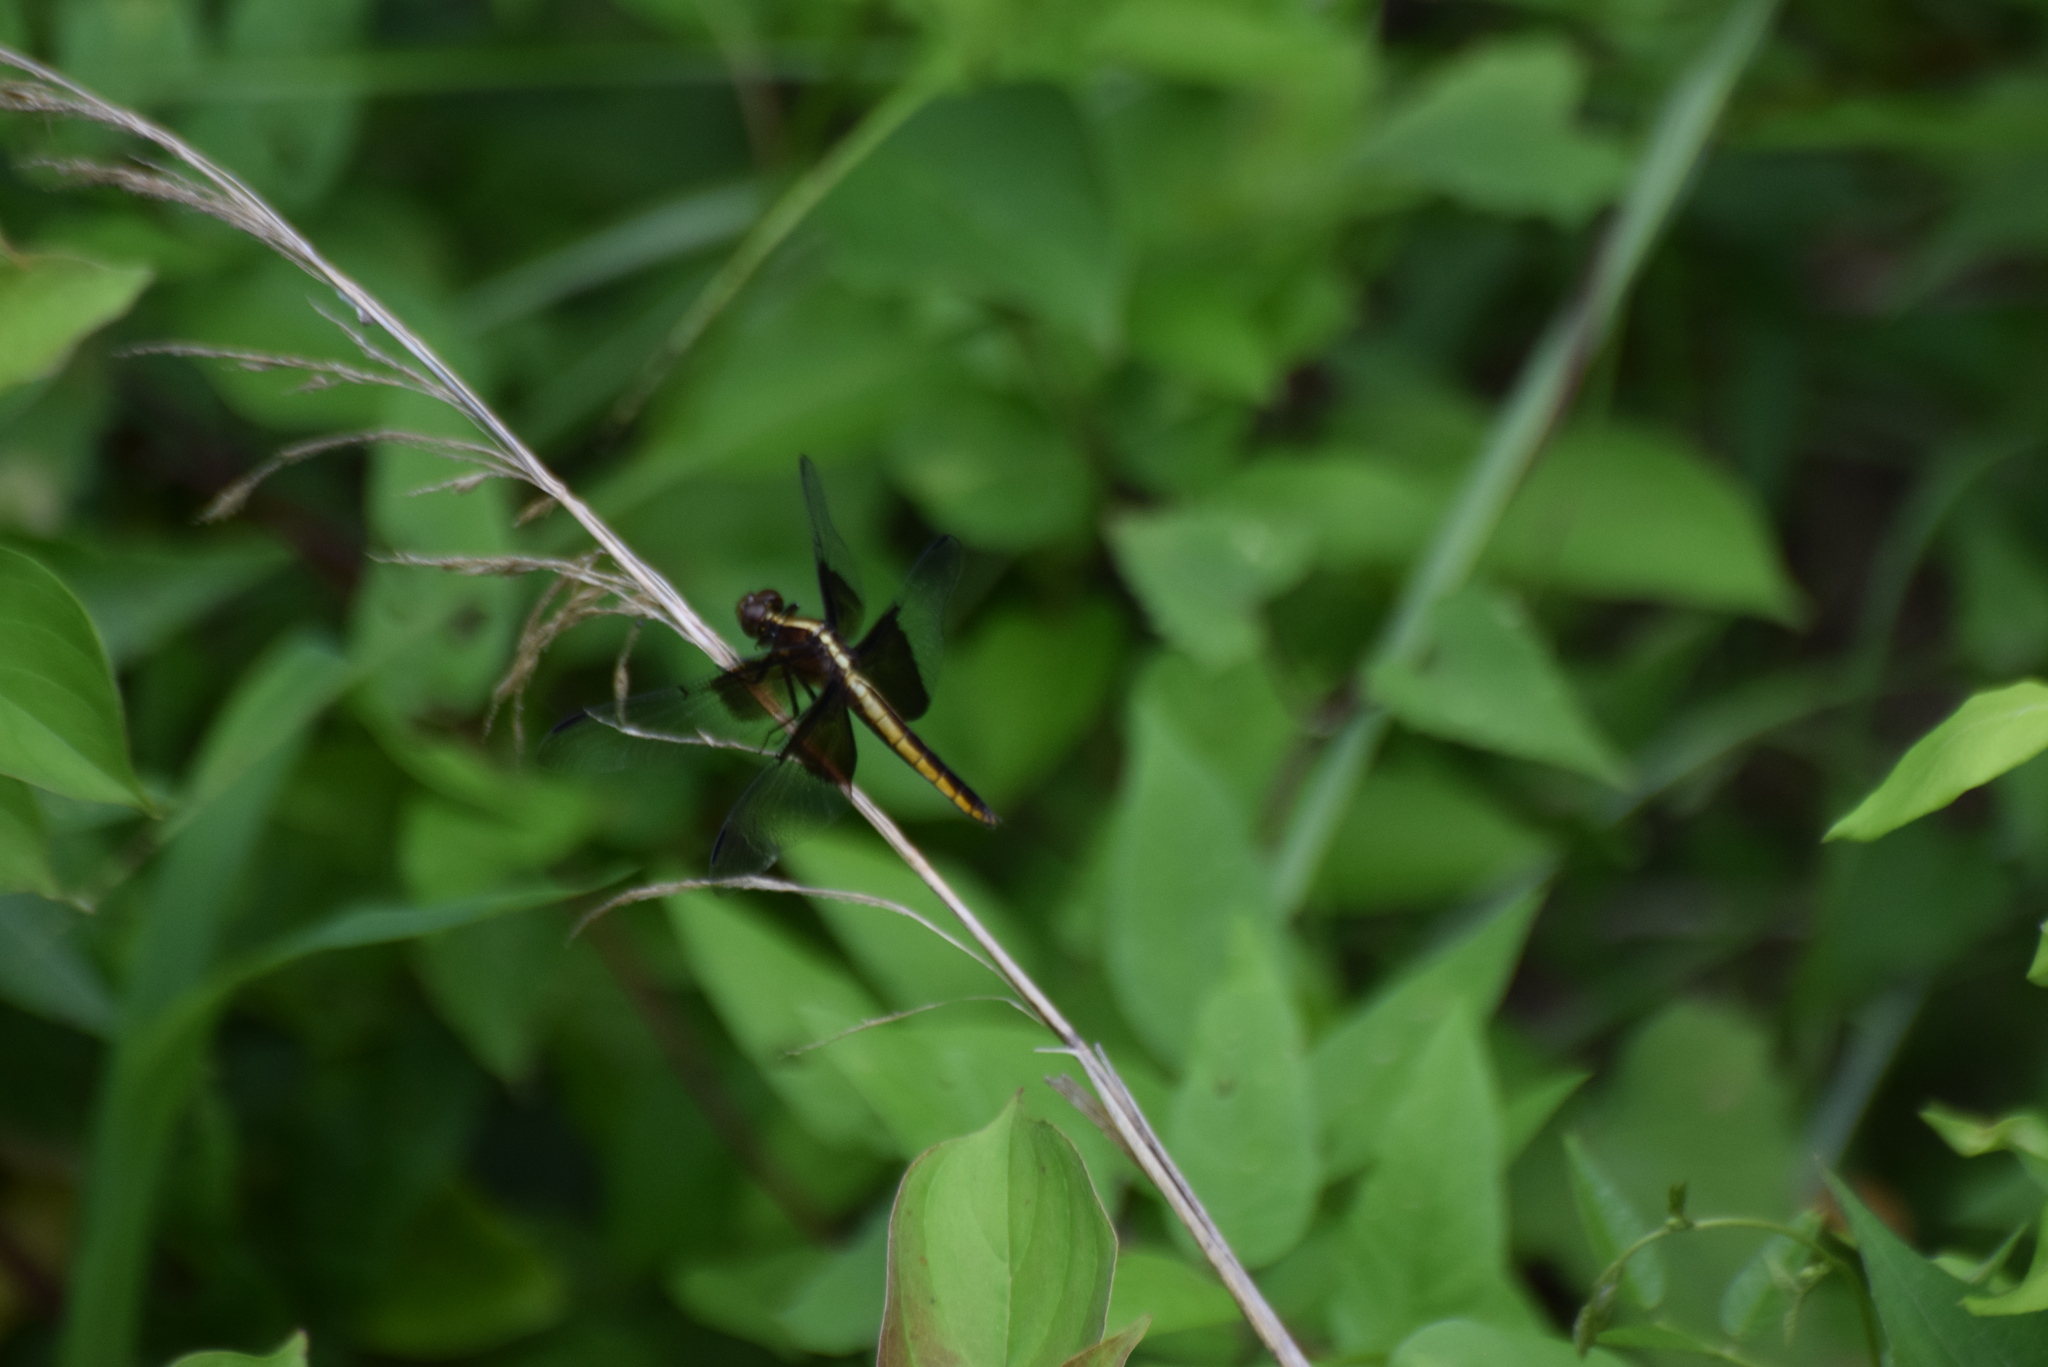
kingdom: Animalia
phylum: Arthropoda
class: Insecta
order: Odonata
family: Libellulidae
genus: Libellula
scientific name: Libellula luctuosa
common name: Widow skimmer
